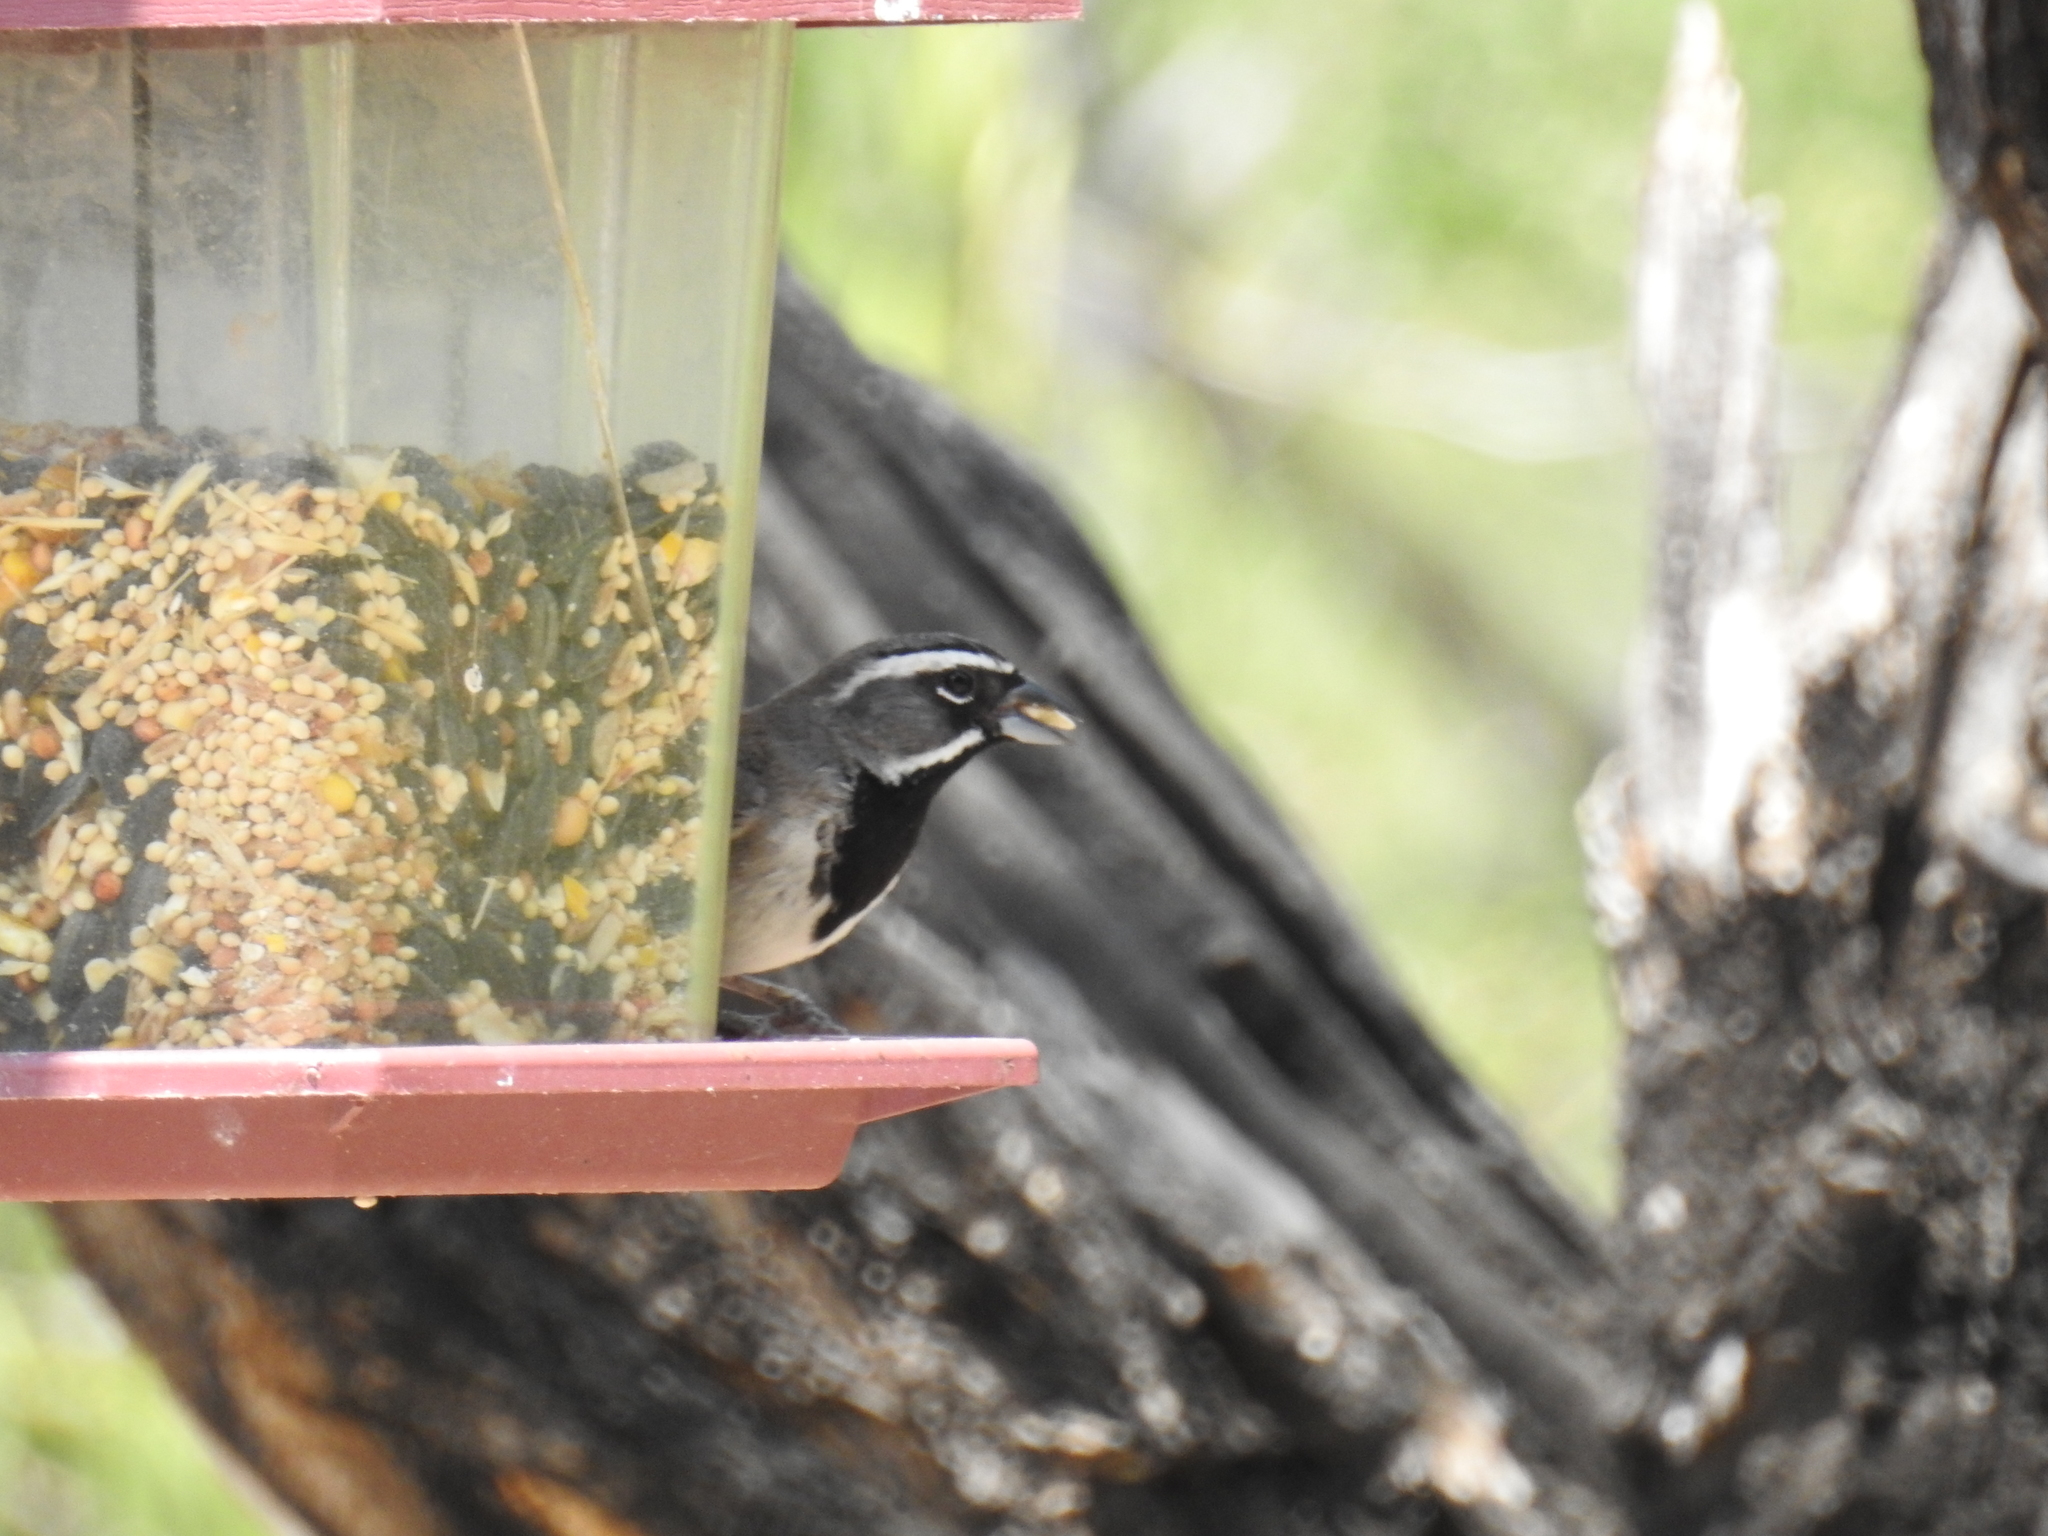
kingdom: Animalia
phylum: Chordata
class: Aves
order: Passeriformes
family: Passerellidae
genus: Amphispiza
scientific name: Amphispiza bilineata
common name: Black-throated sparrow
